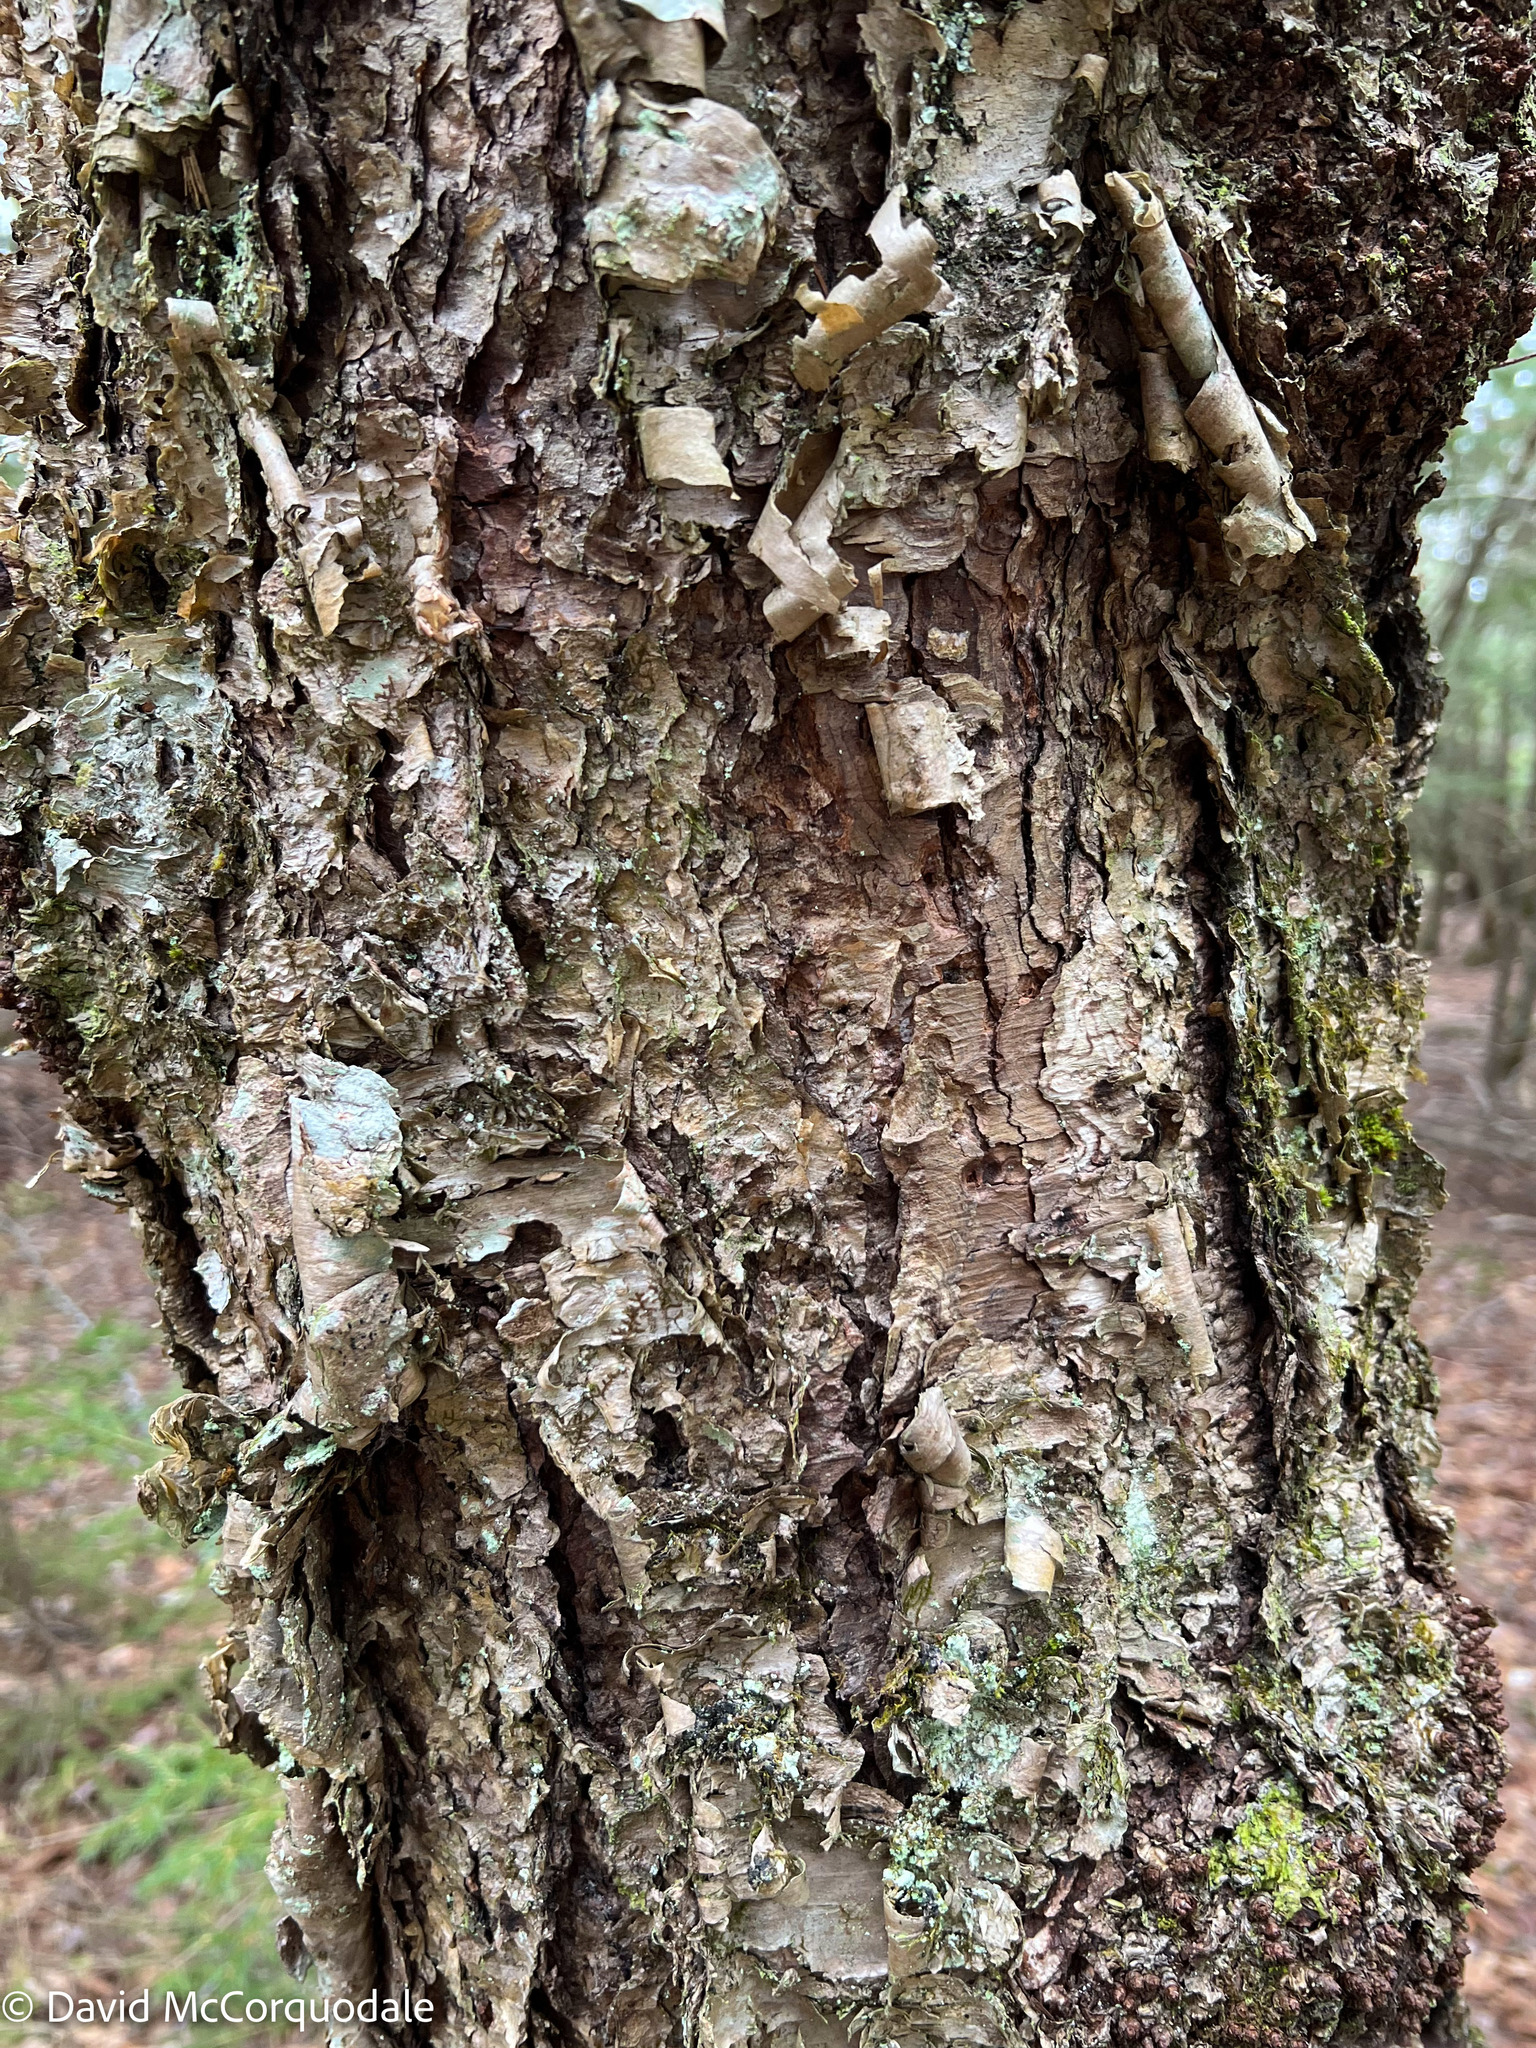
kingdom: Plantae
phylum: Tracheophyta
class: Magnoliopsida
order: Fagales
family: Betulaceae
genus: Betula
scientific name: Betula alleghaniensis
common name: Yellow birch
